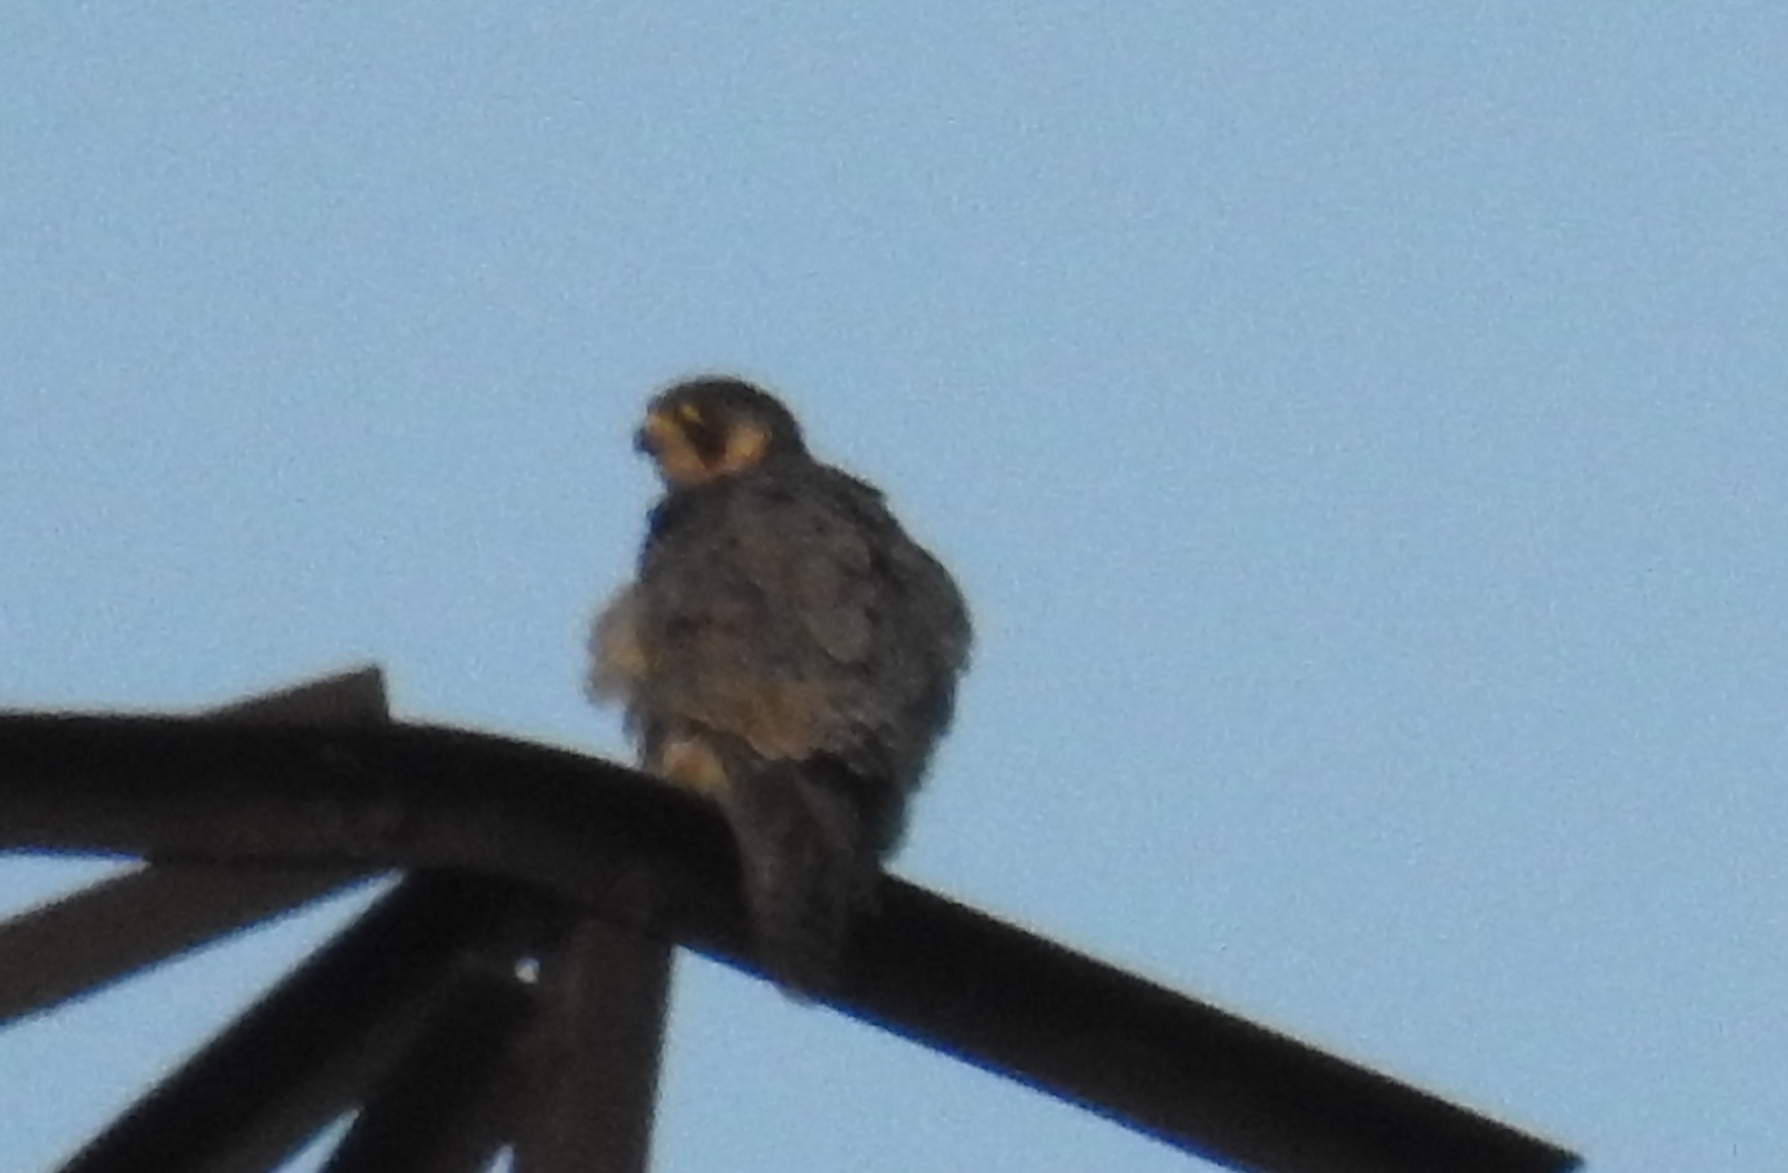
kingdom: Animalia
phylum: Chordata
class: Aves
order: Falconiformes
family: Falconidae
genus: Falco
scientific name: Falco peregrinus
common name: Peregrine falcon
